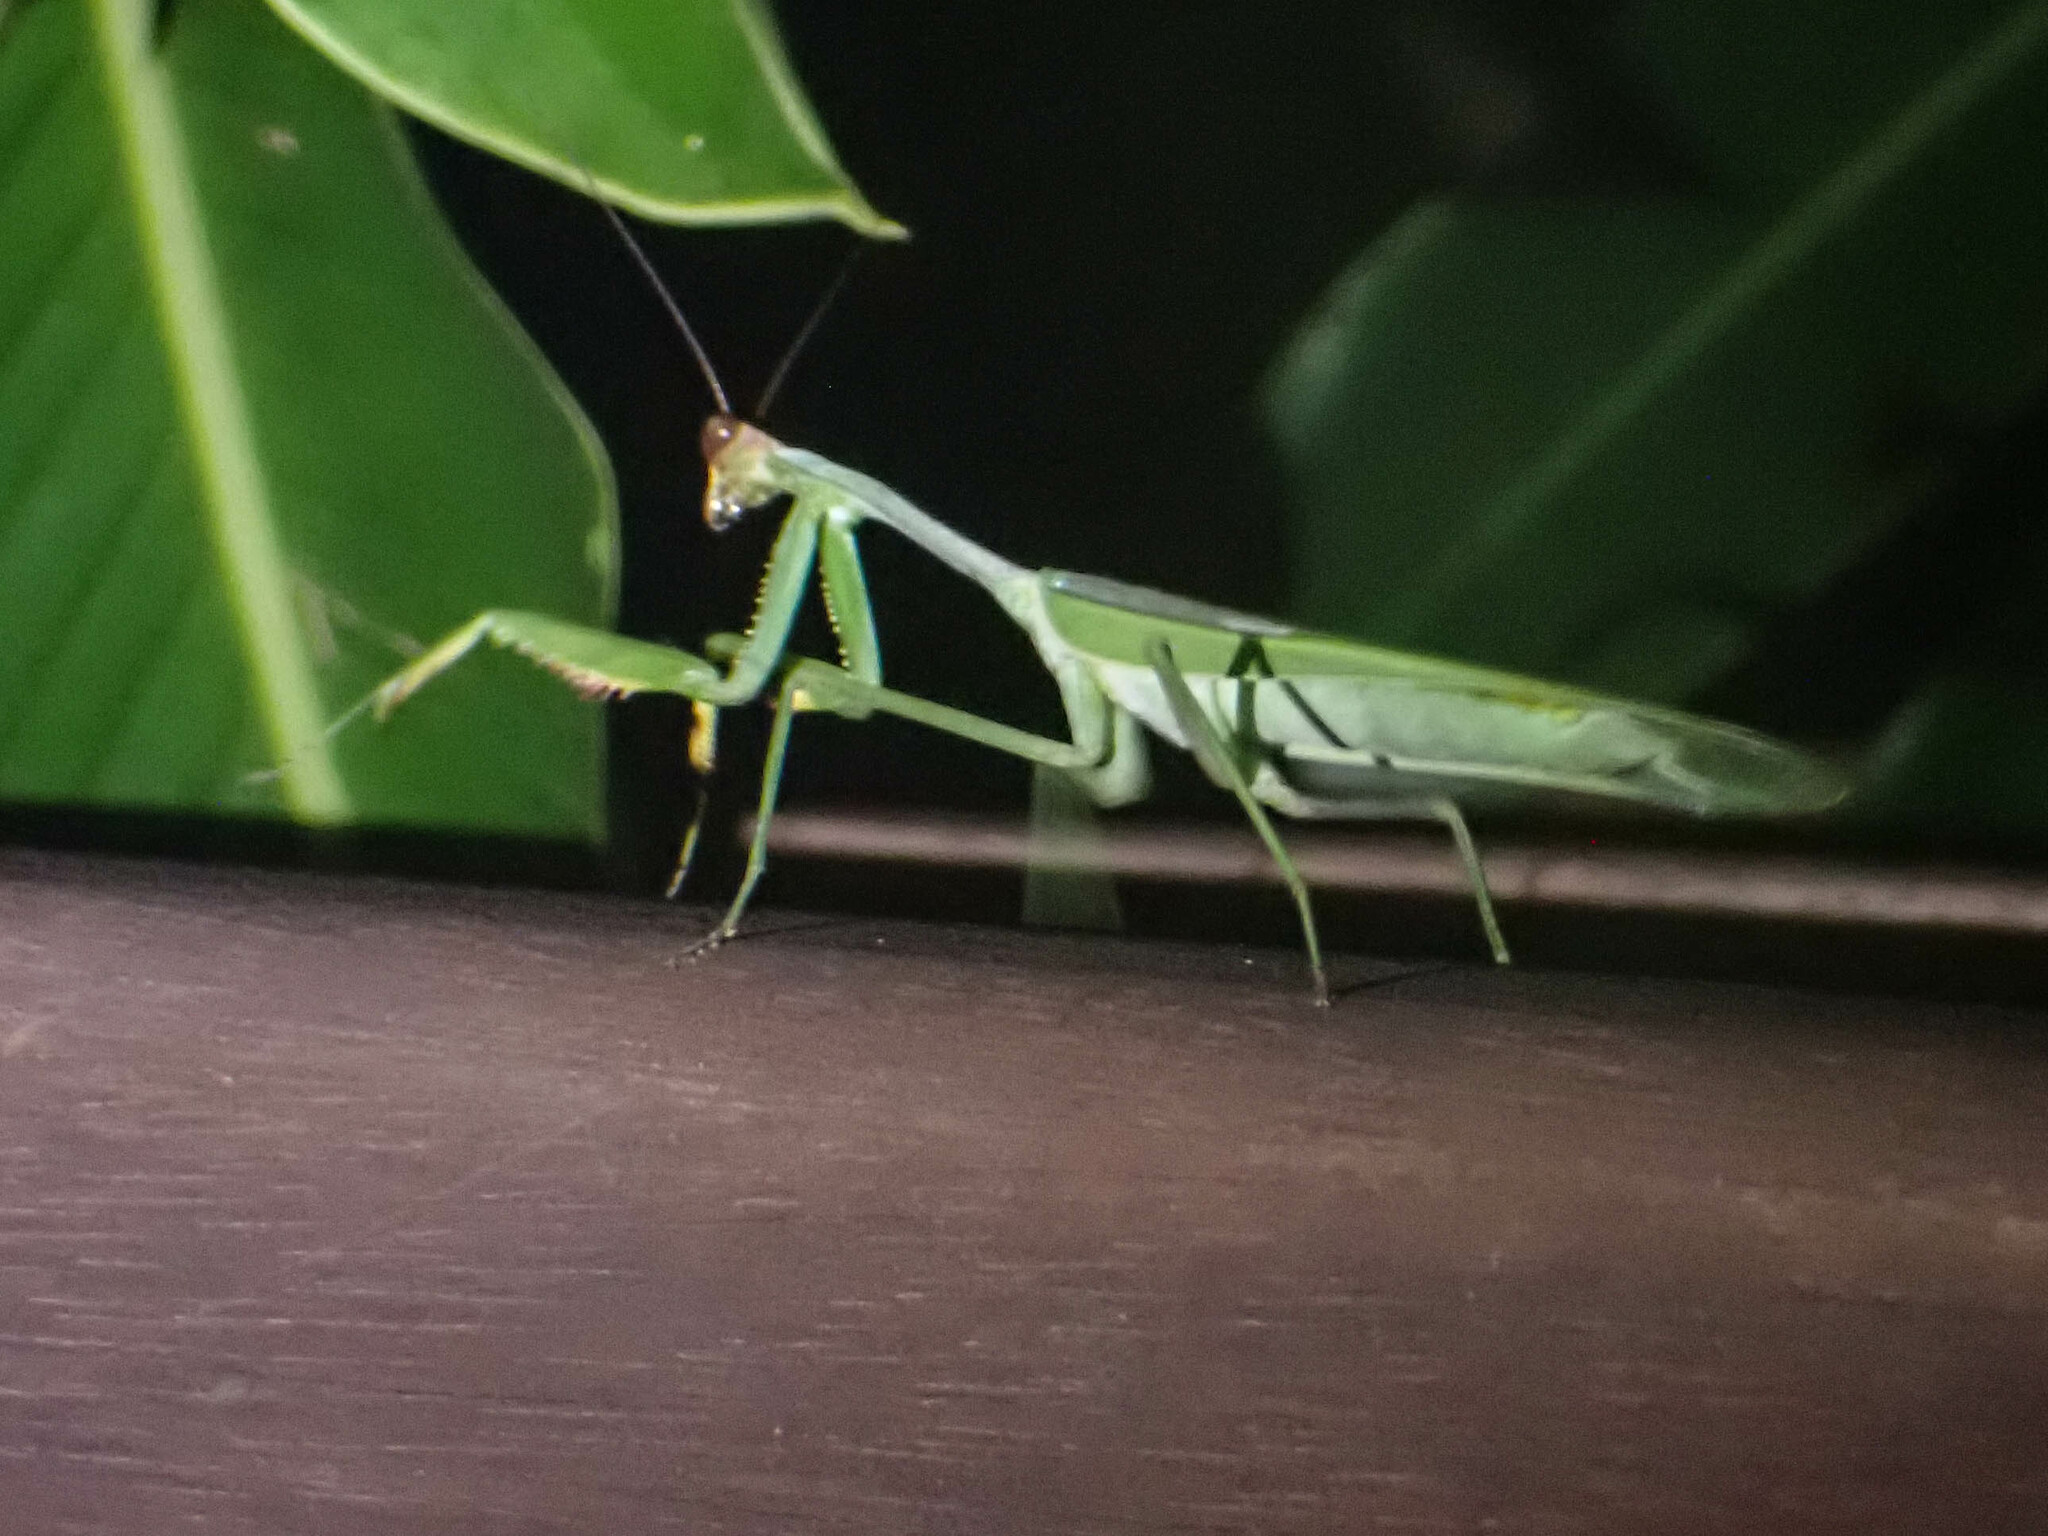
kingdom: Animalia
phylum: Arthropoda
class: Insecta
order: Mantodea
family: Mantidae
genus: Stagmatoptera
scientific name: Stagmatoptera septentrionalis
